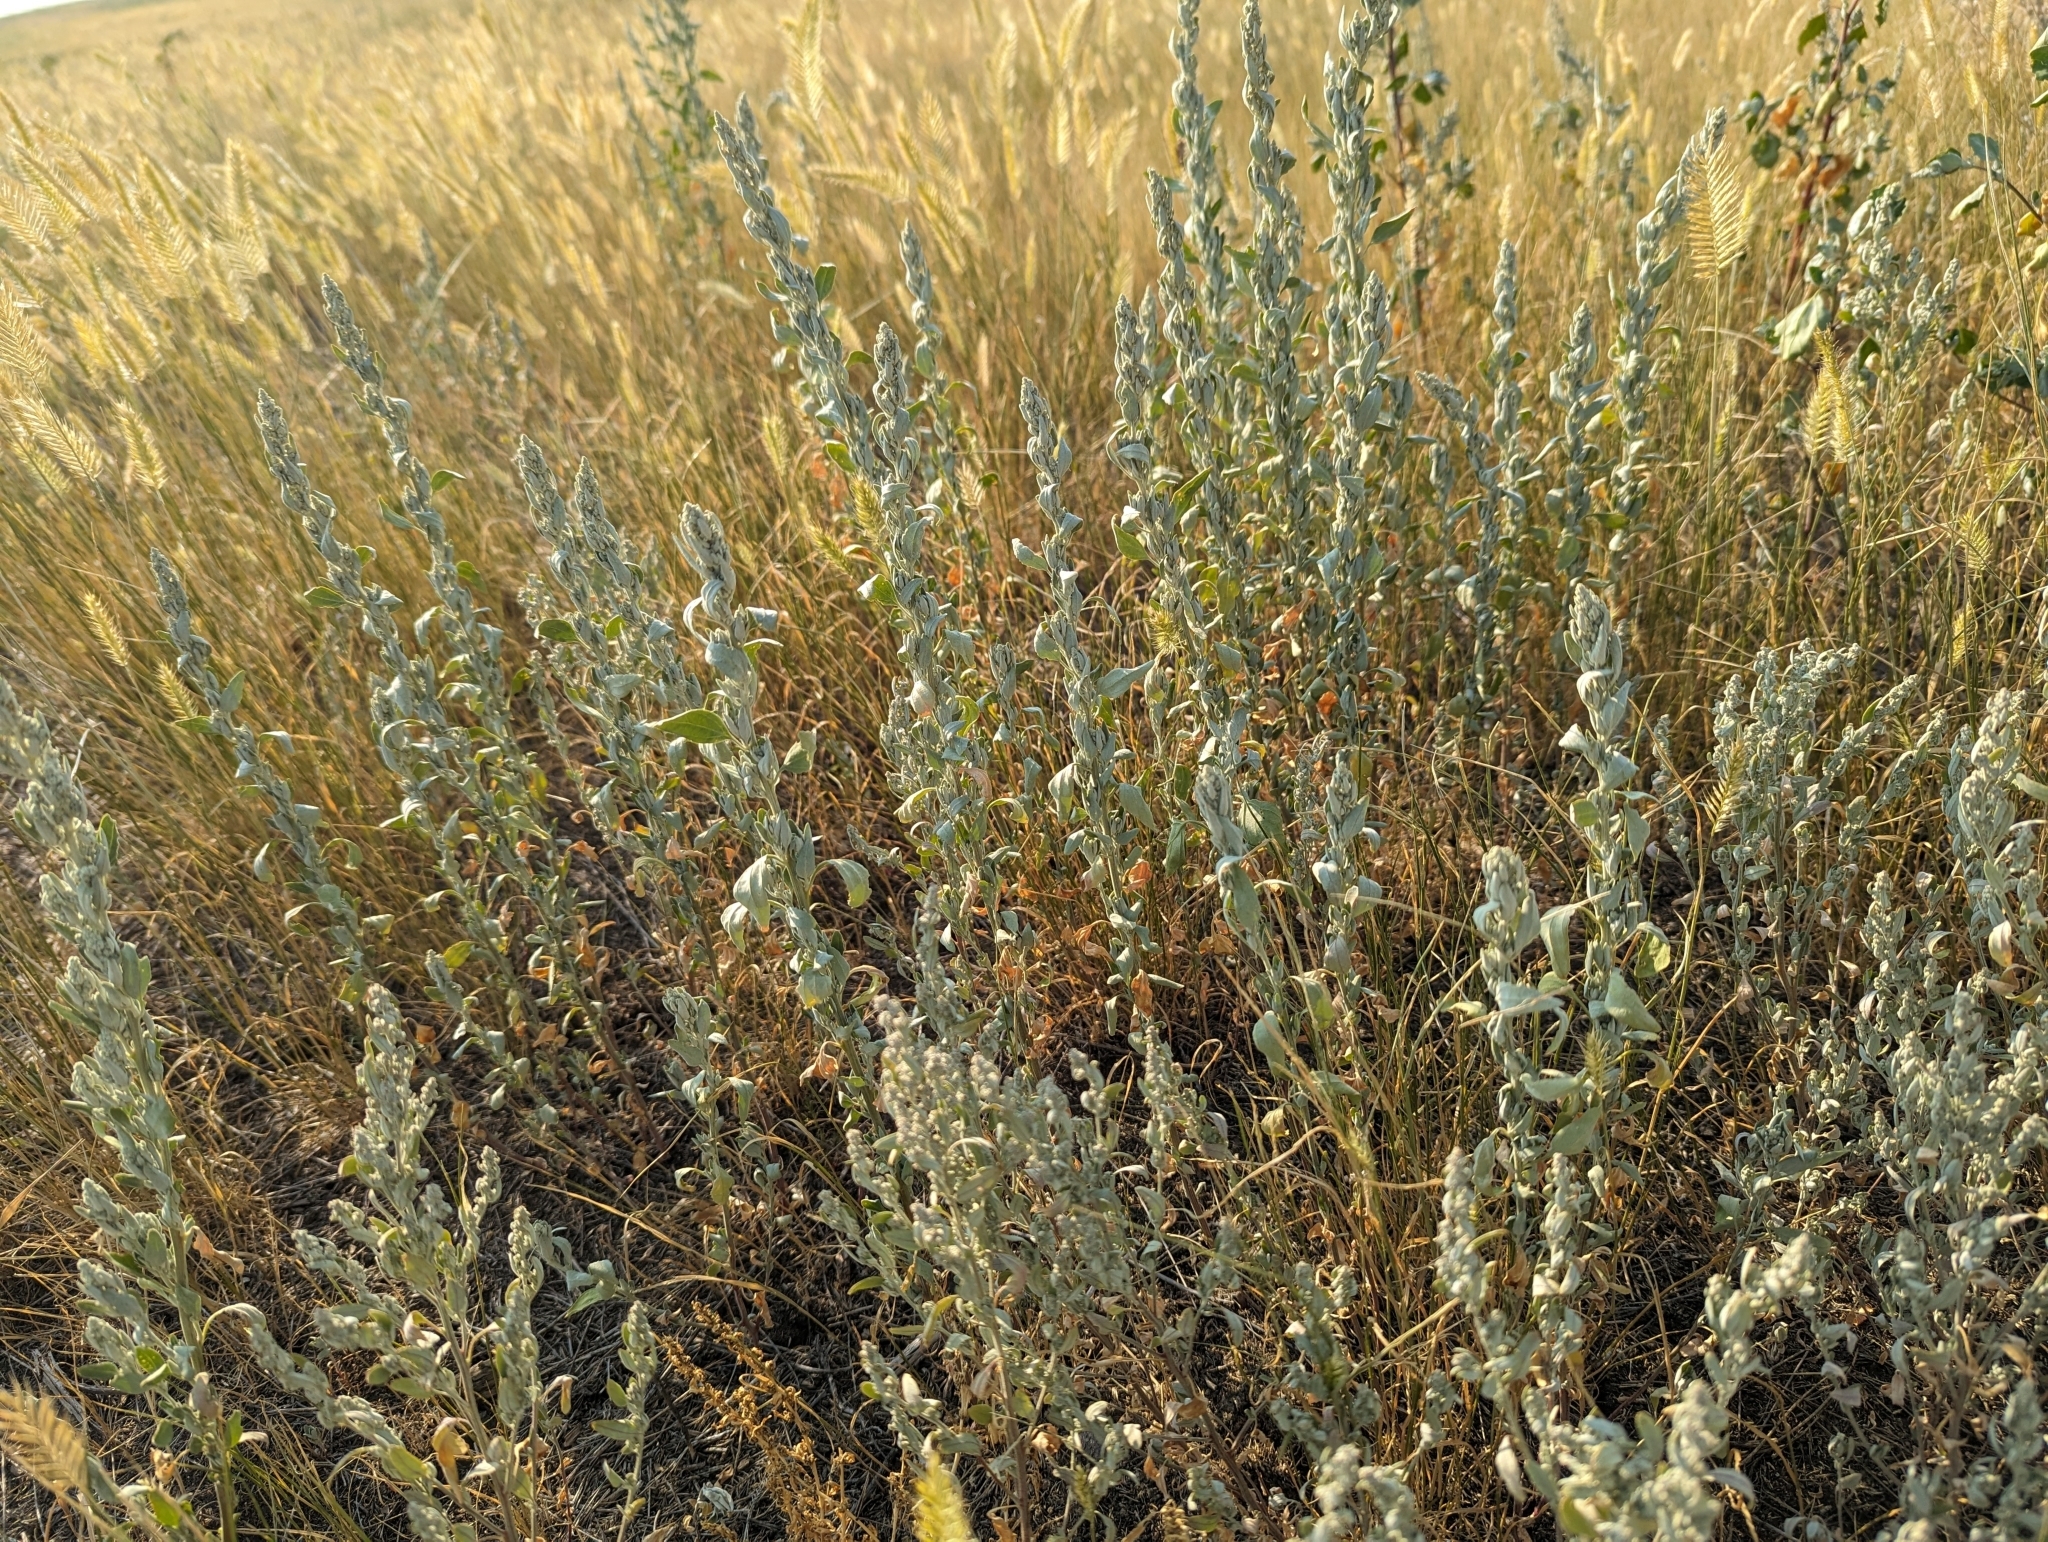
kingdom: Plantae
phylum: Tracheophyta
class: Magnoliopsida
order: Asterales
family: Asteraceae
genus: Artemisia
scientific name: Artemisia ludoviciana
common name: Western mugwort
